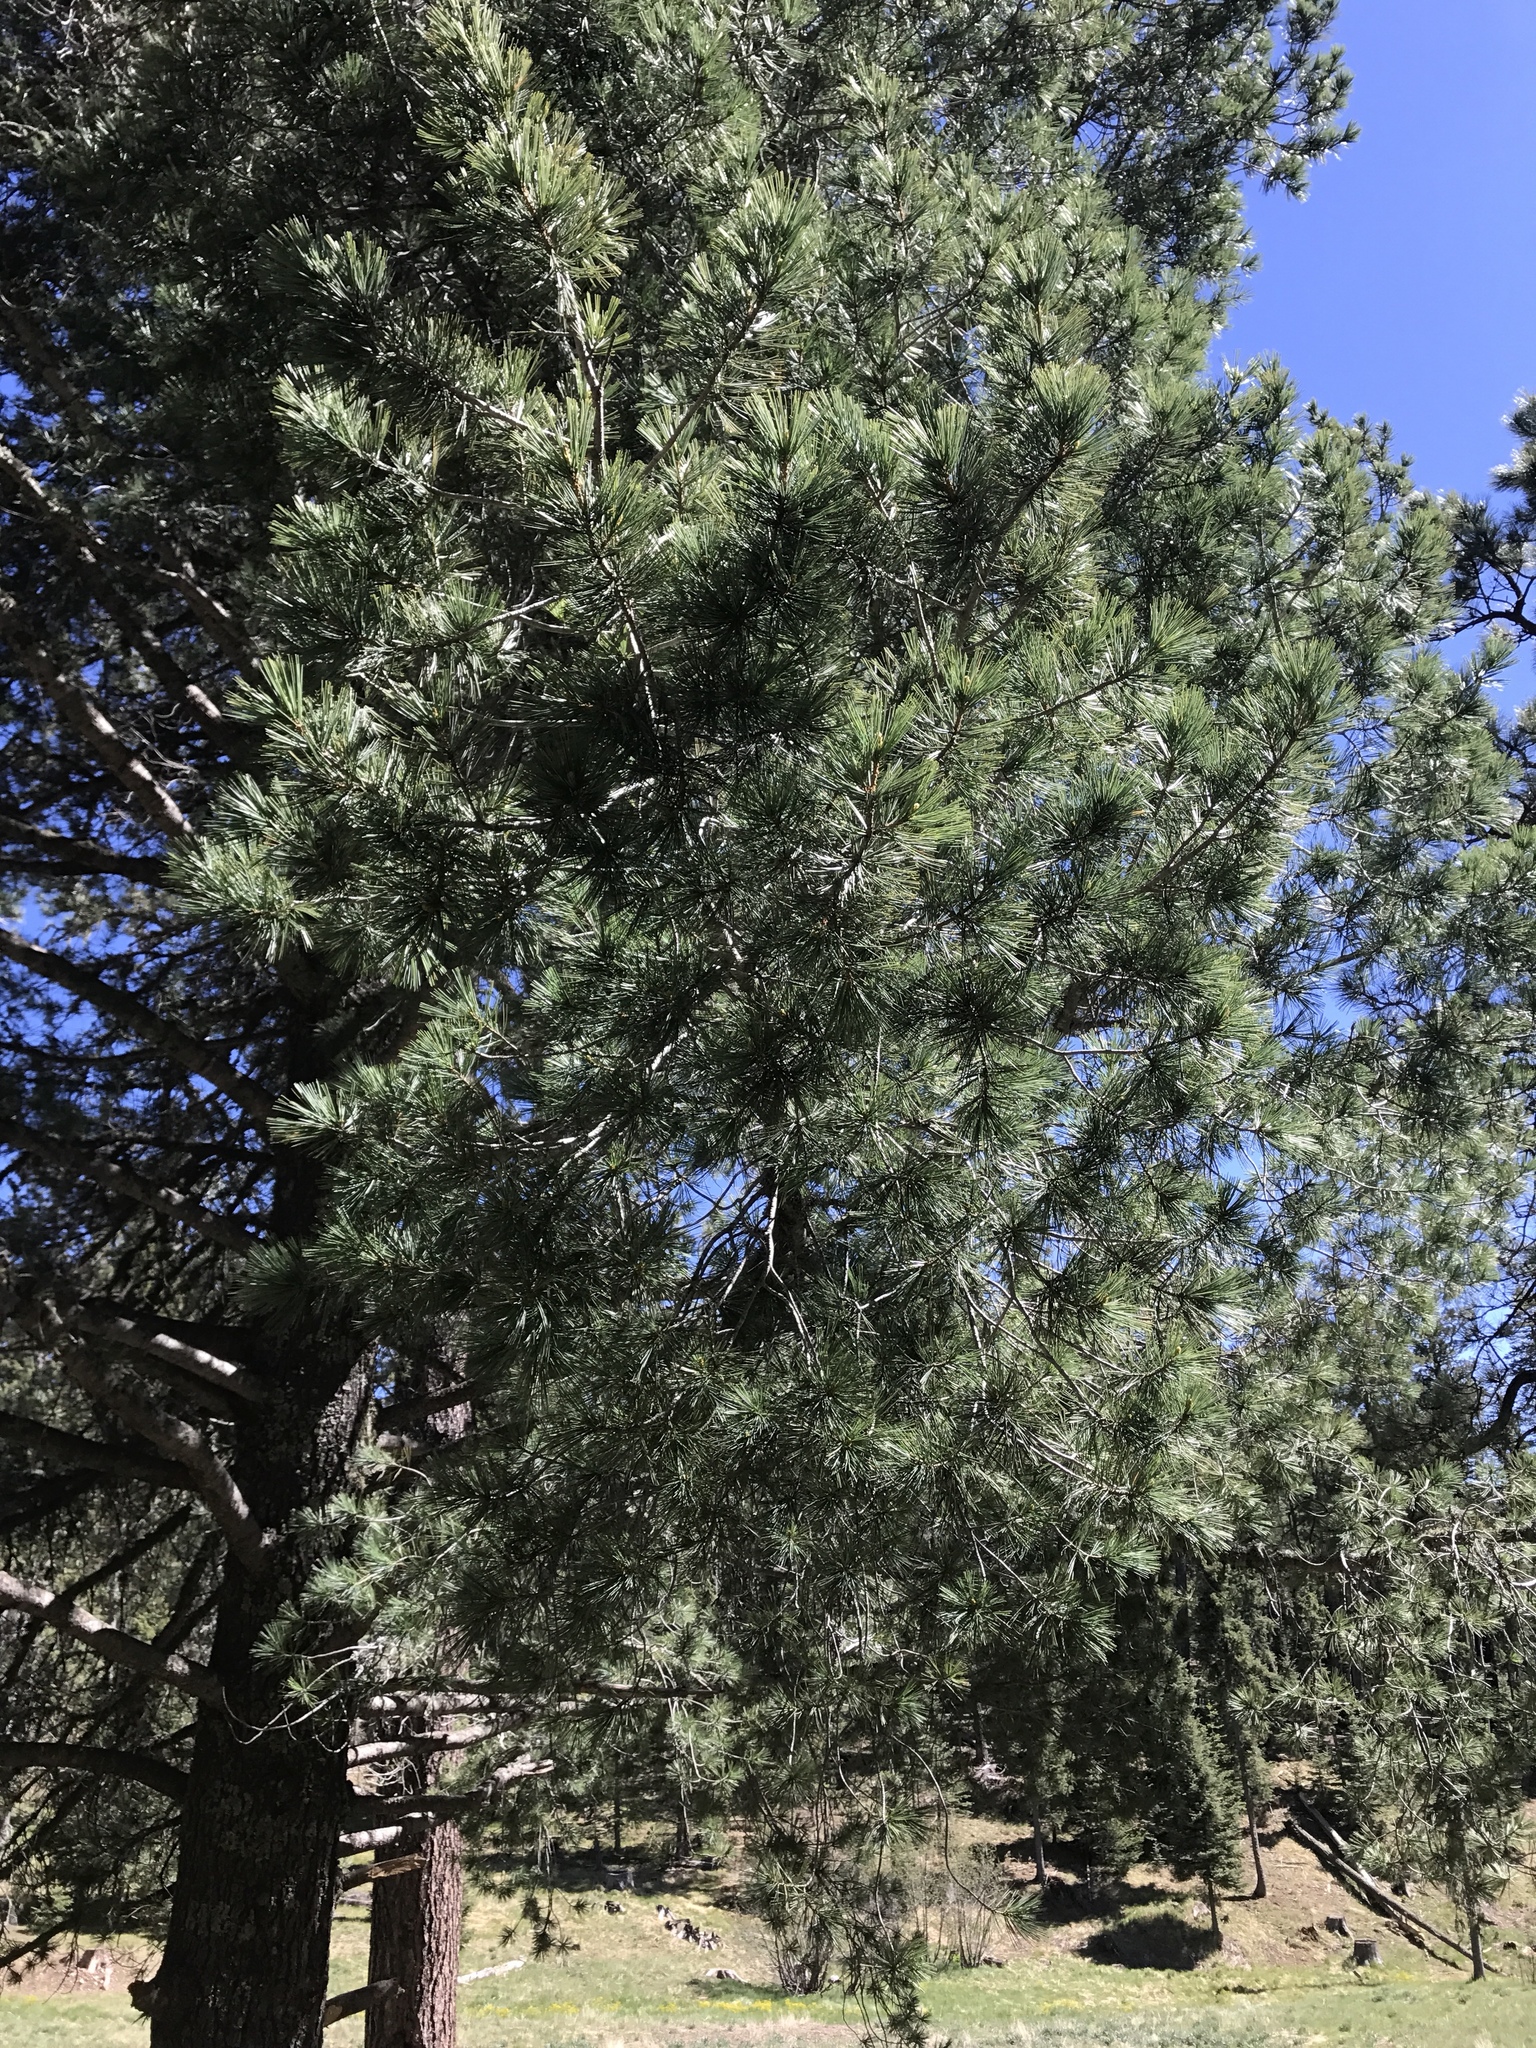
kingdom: Plantae
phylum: Tracheophyta
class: Pinopsida
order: Pinales
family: Pinaceae
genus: Pinus
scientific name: Pinus strobiformis
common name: Southwestern white pine
